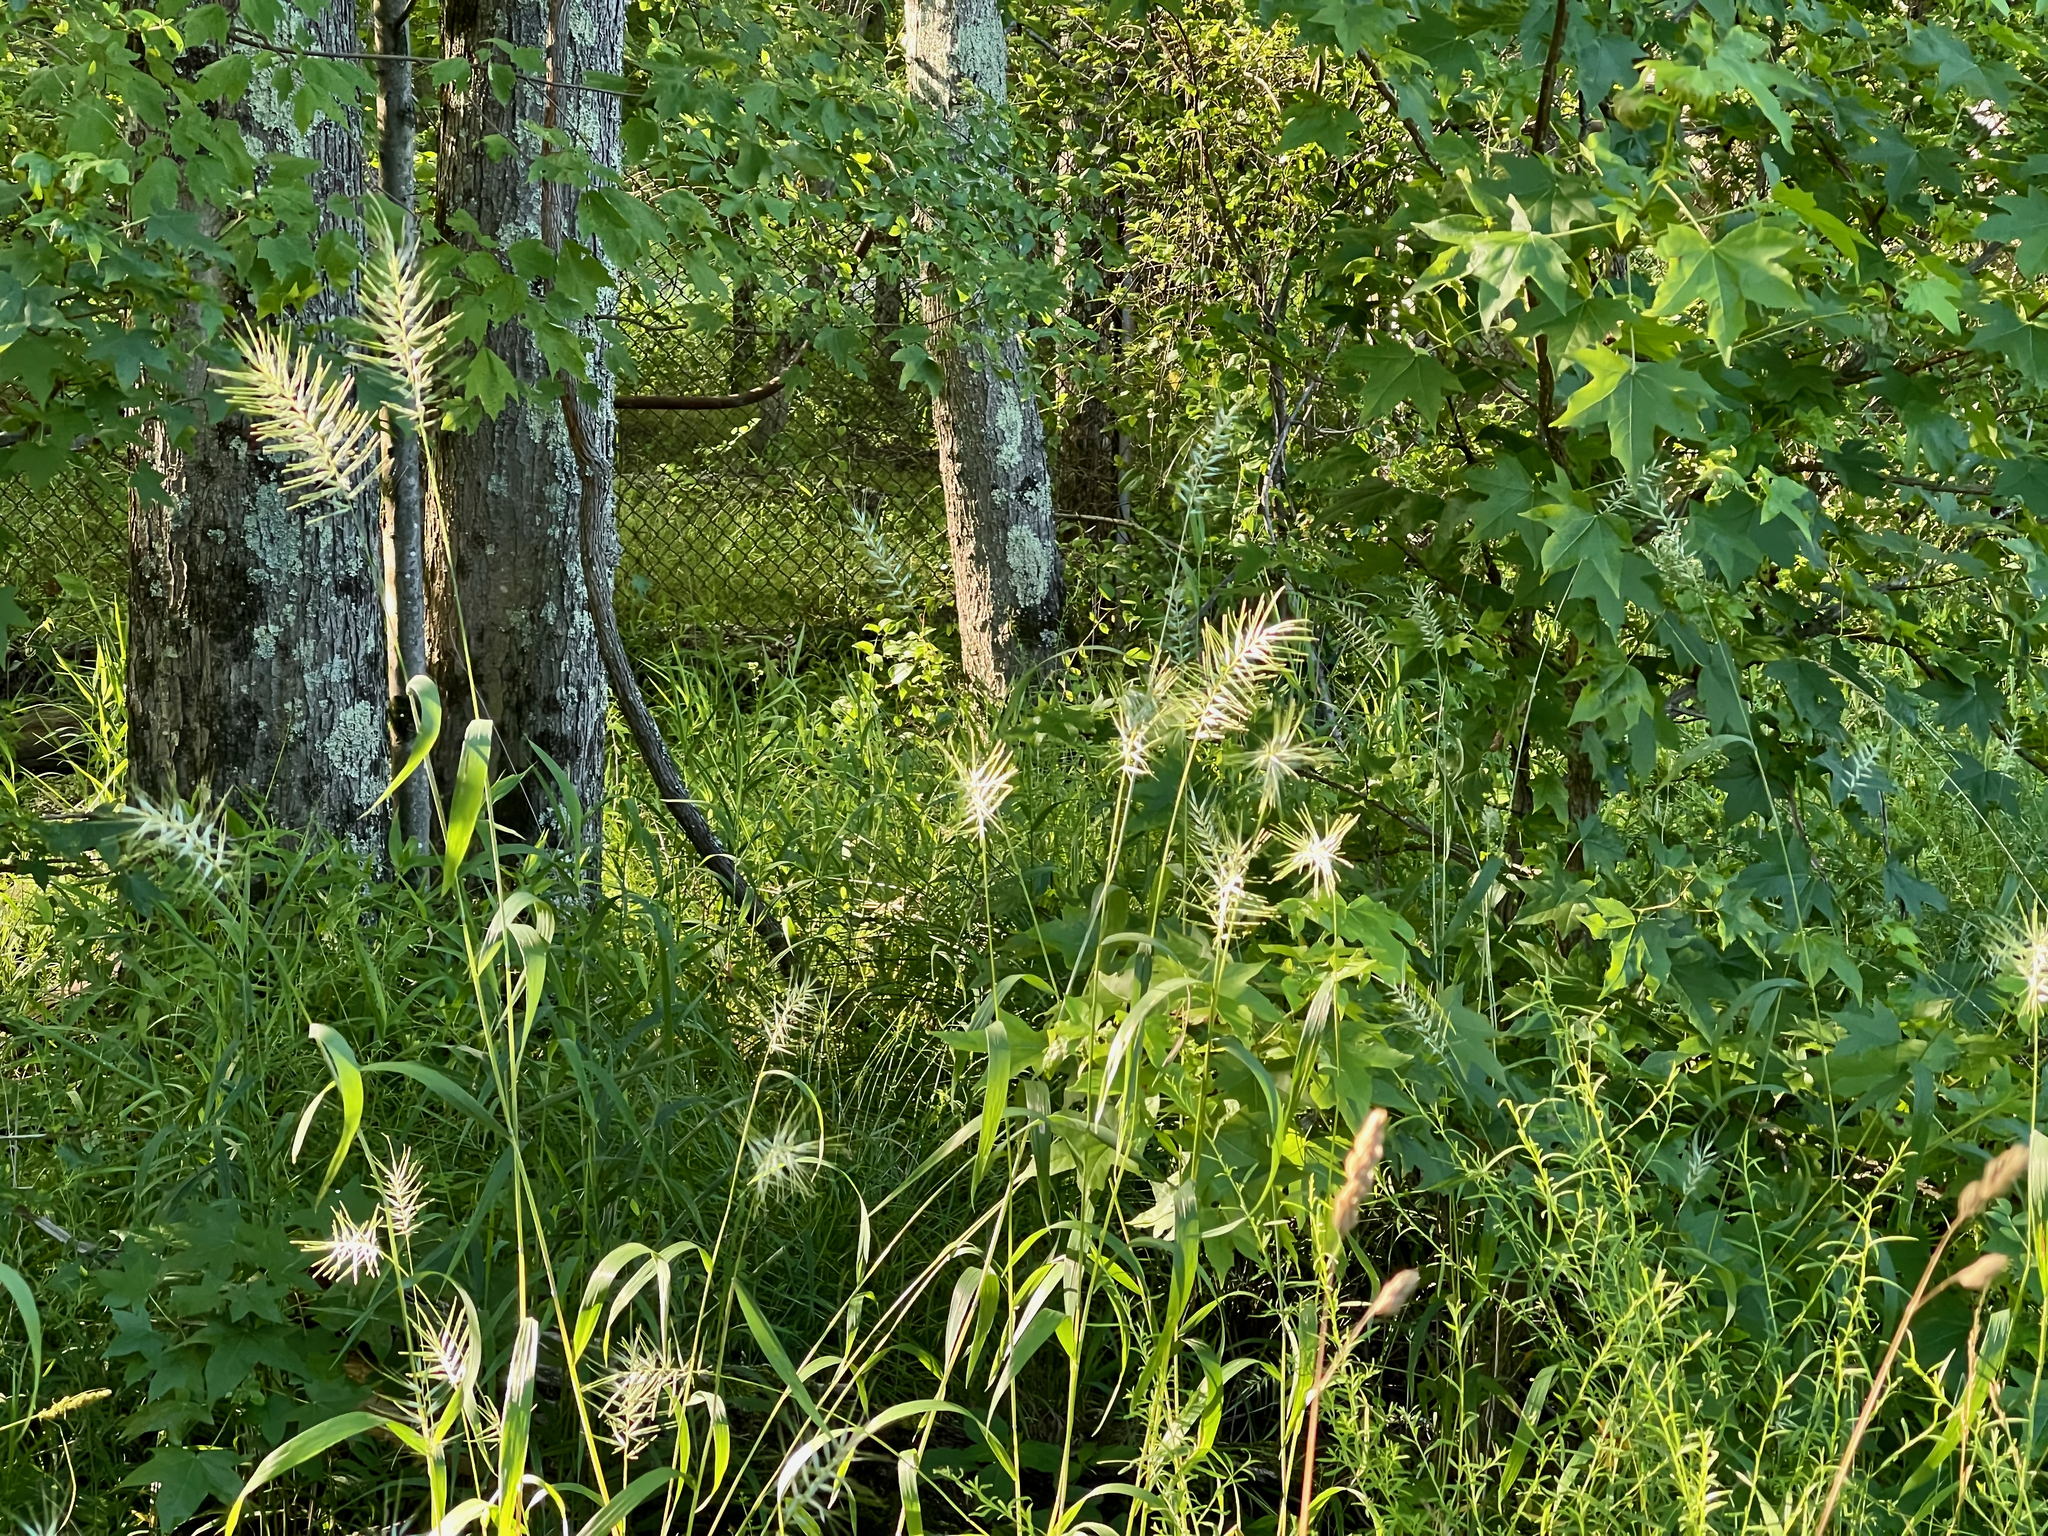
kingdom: Plantae
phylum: Tracheophyta
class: Liliopsida
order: Poales
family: Poaceae
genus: Elymus
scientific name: Elymus hystrix
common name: Bottlebrush grass
